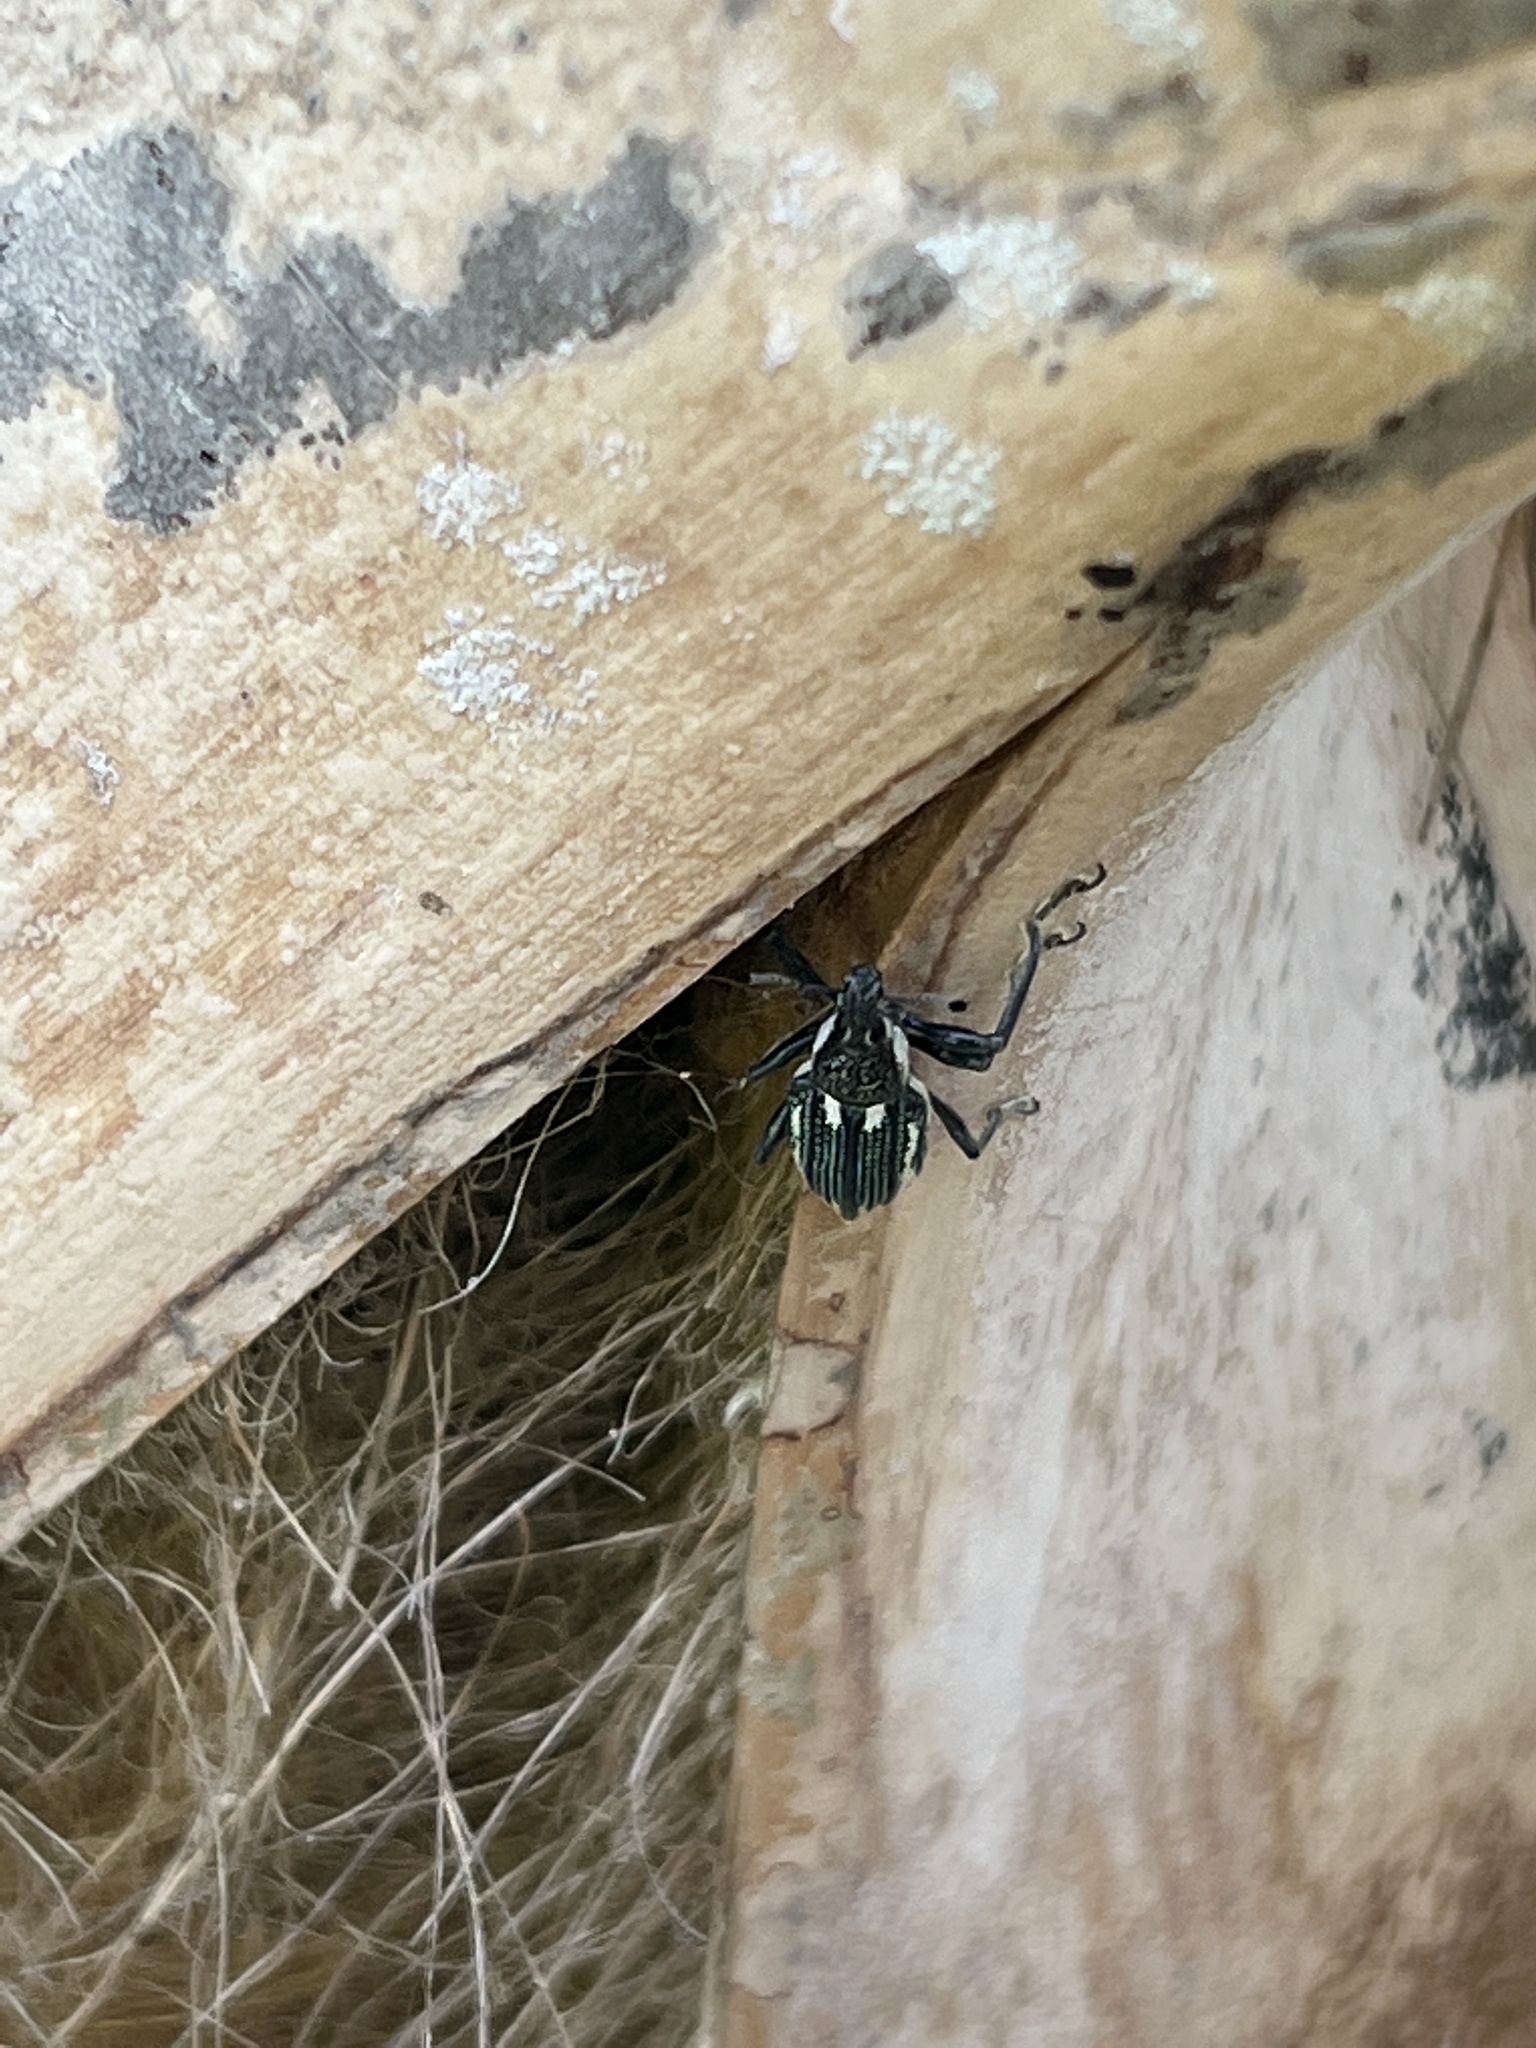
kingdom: Animalia
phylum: Arthropoda
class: Insecta
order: Coleoptera
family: Curculionidae
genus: Diaprepes
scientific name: Diaprepes abbreviatus
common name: Root weevil
